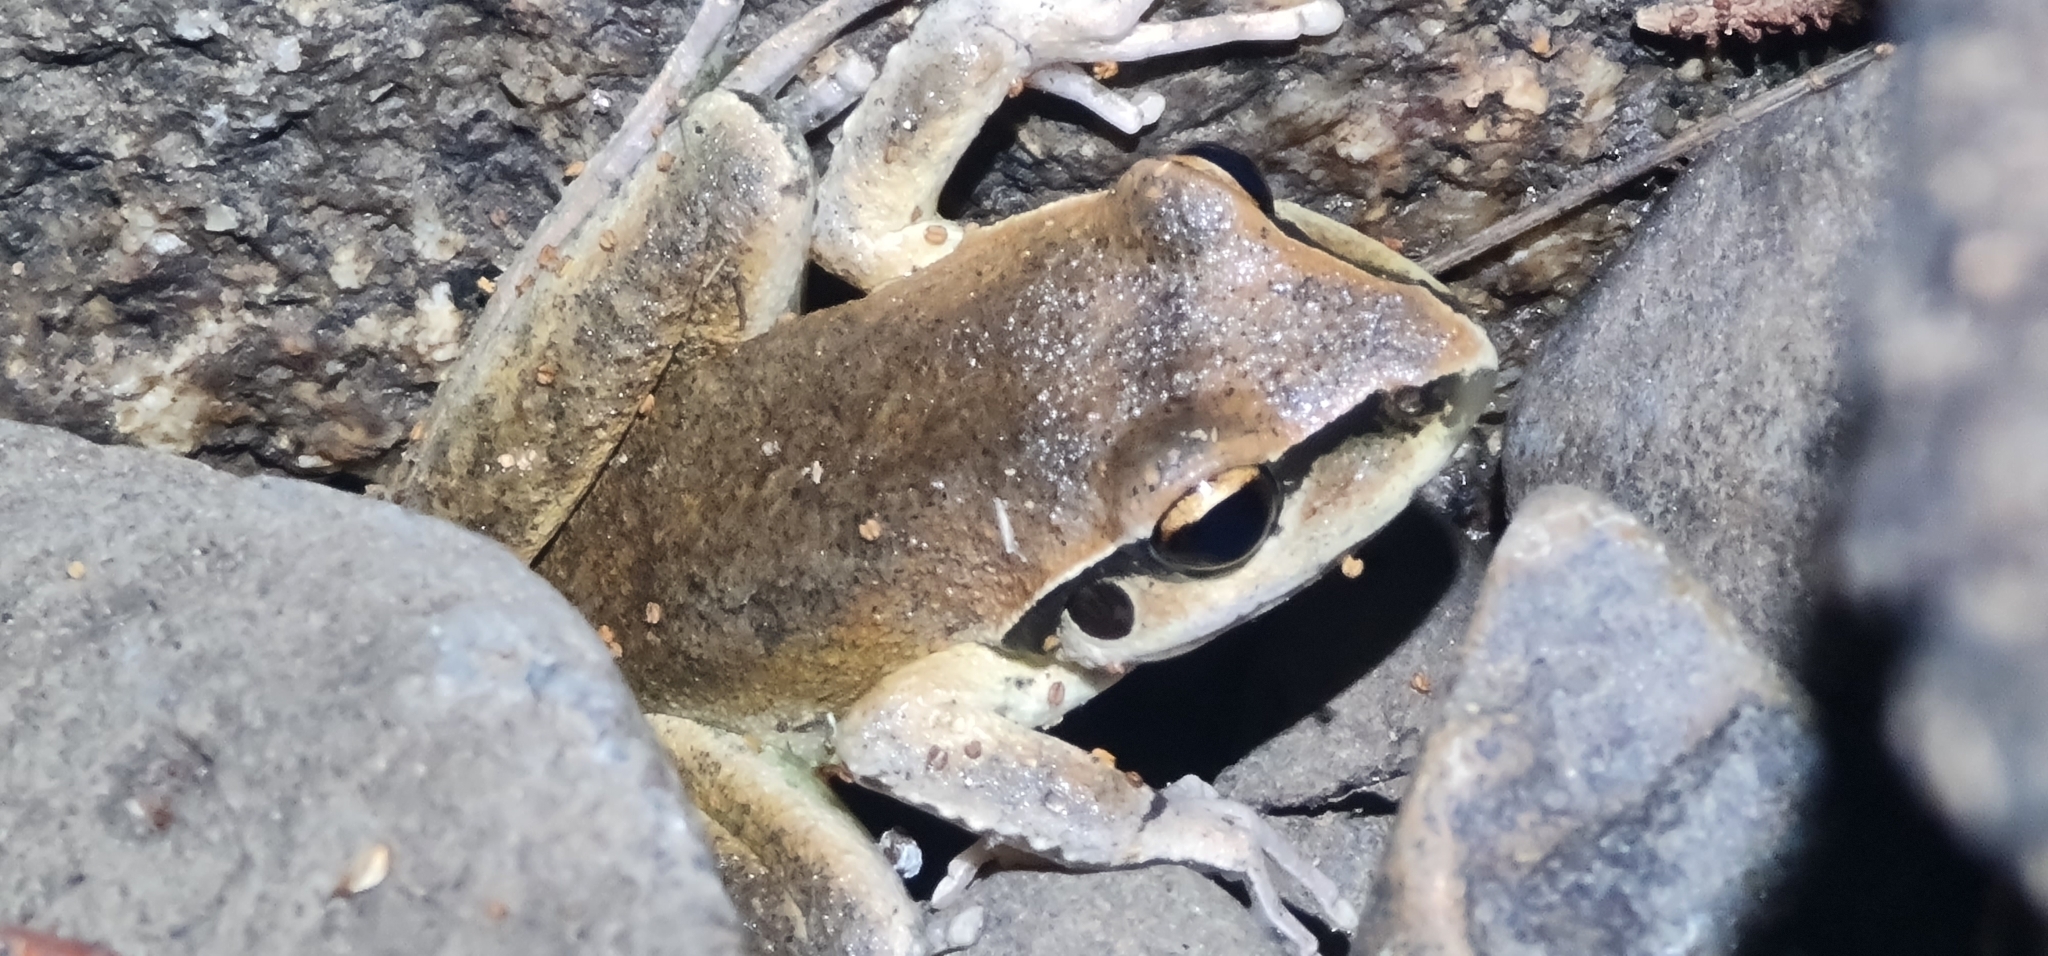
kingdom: Animalia
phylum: Chordata
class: Amphibia
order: Anura
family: Pelodryadidae
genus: Ranoidea
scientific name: Ranoidea wilcoxii
